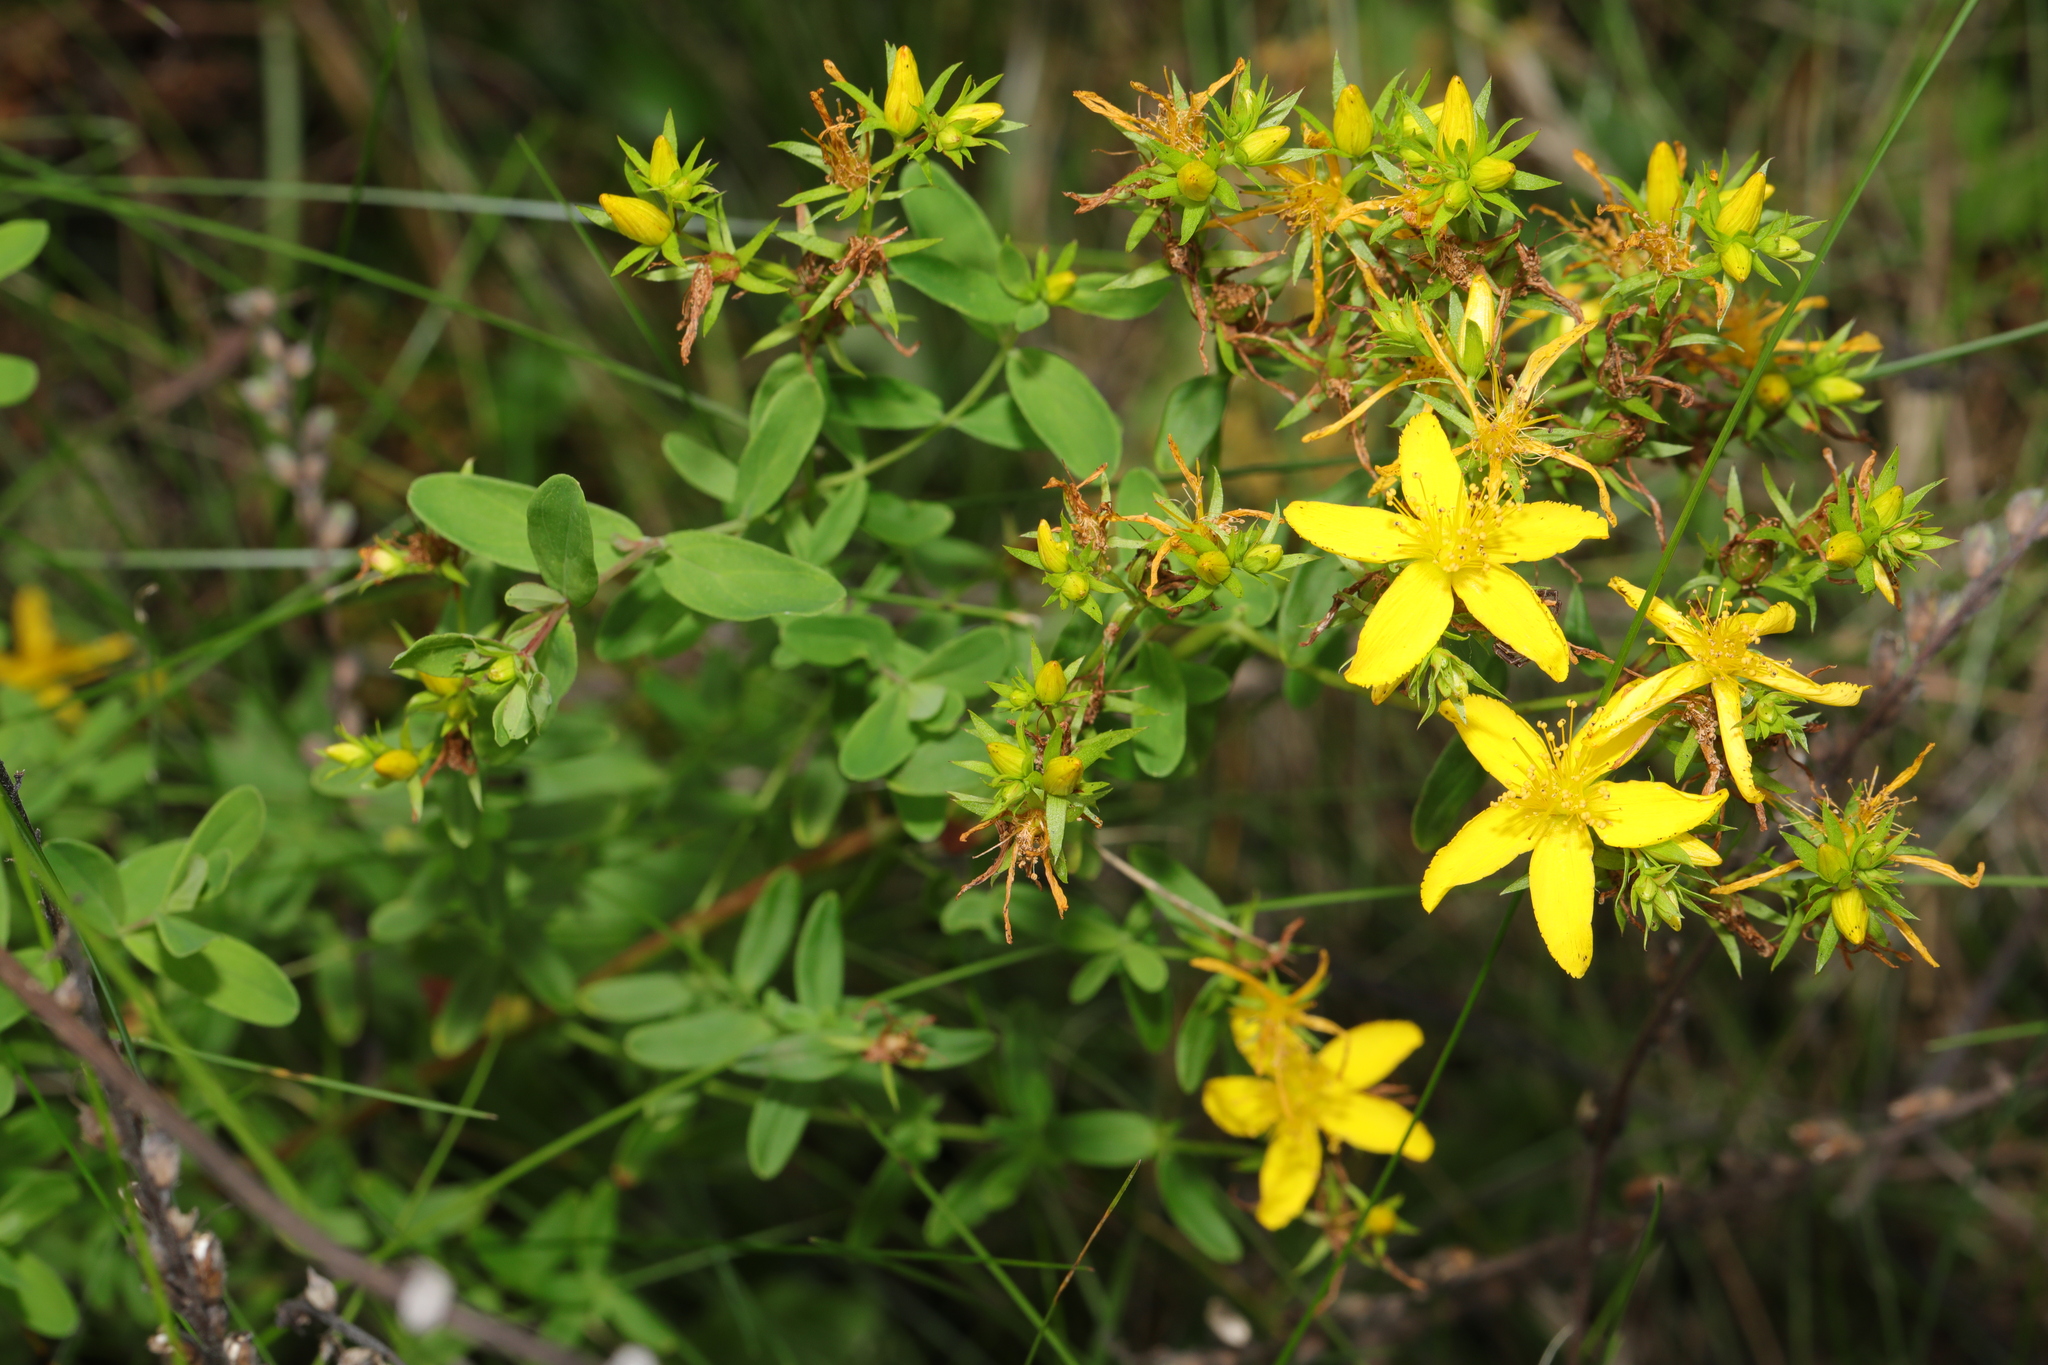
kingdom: Plantae
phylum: Tracheophyta
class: Magnoliopsida
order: Malpighiales
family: Hypericaceae
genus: Hypericum
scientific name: Hypericum perforatum
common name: Common st. johnswort
